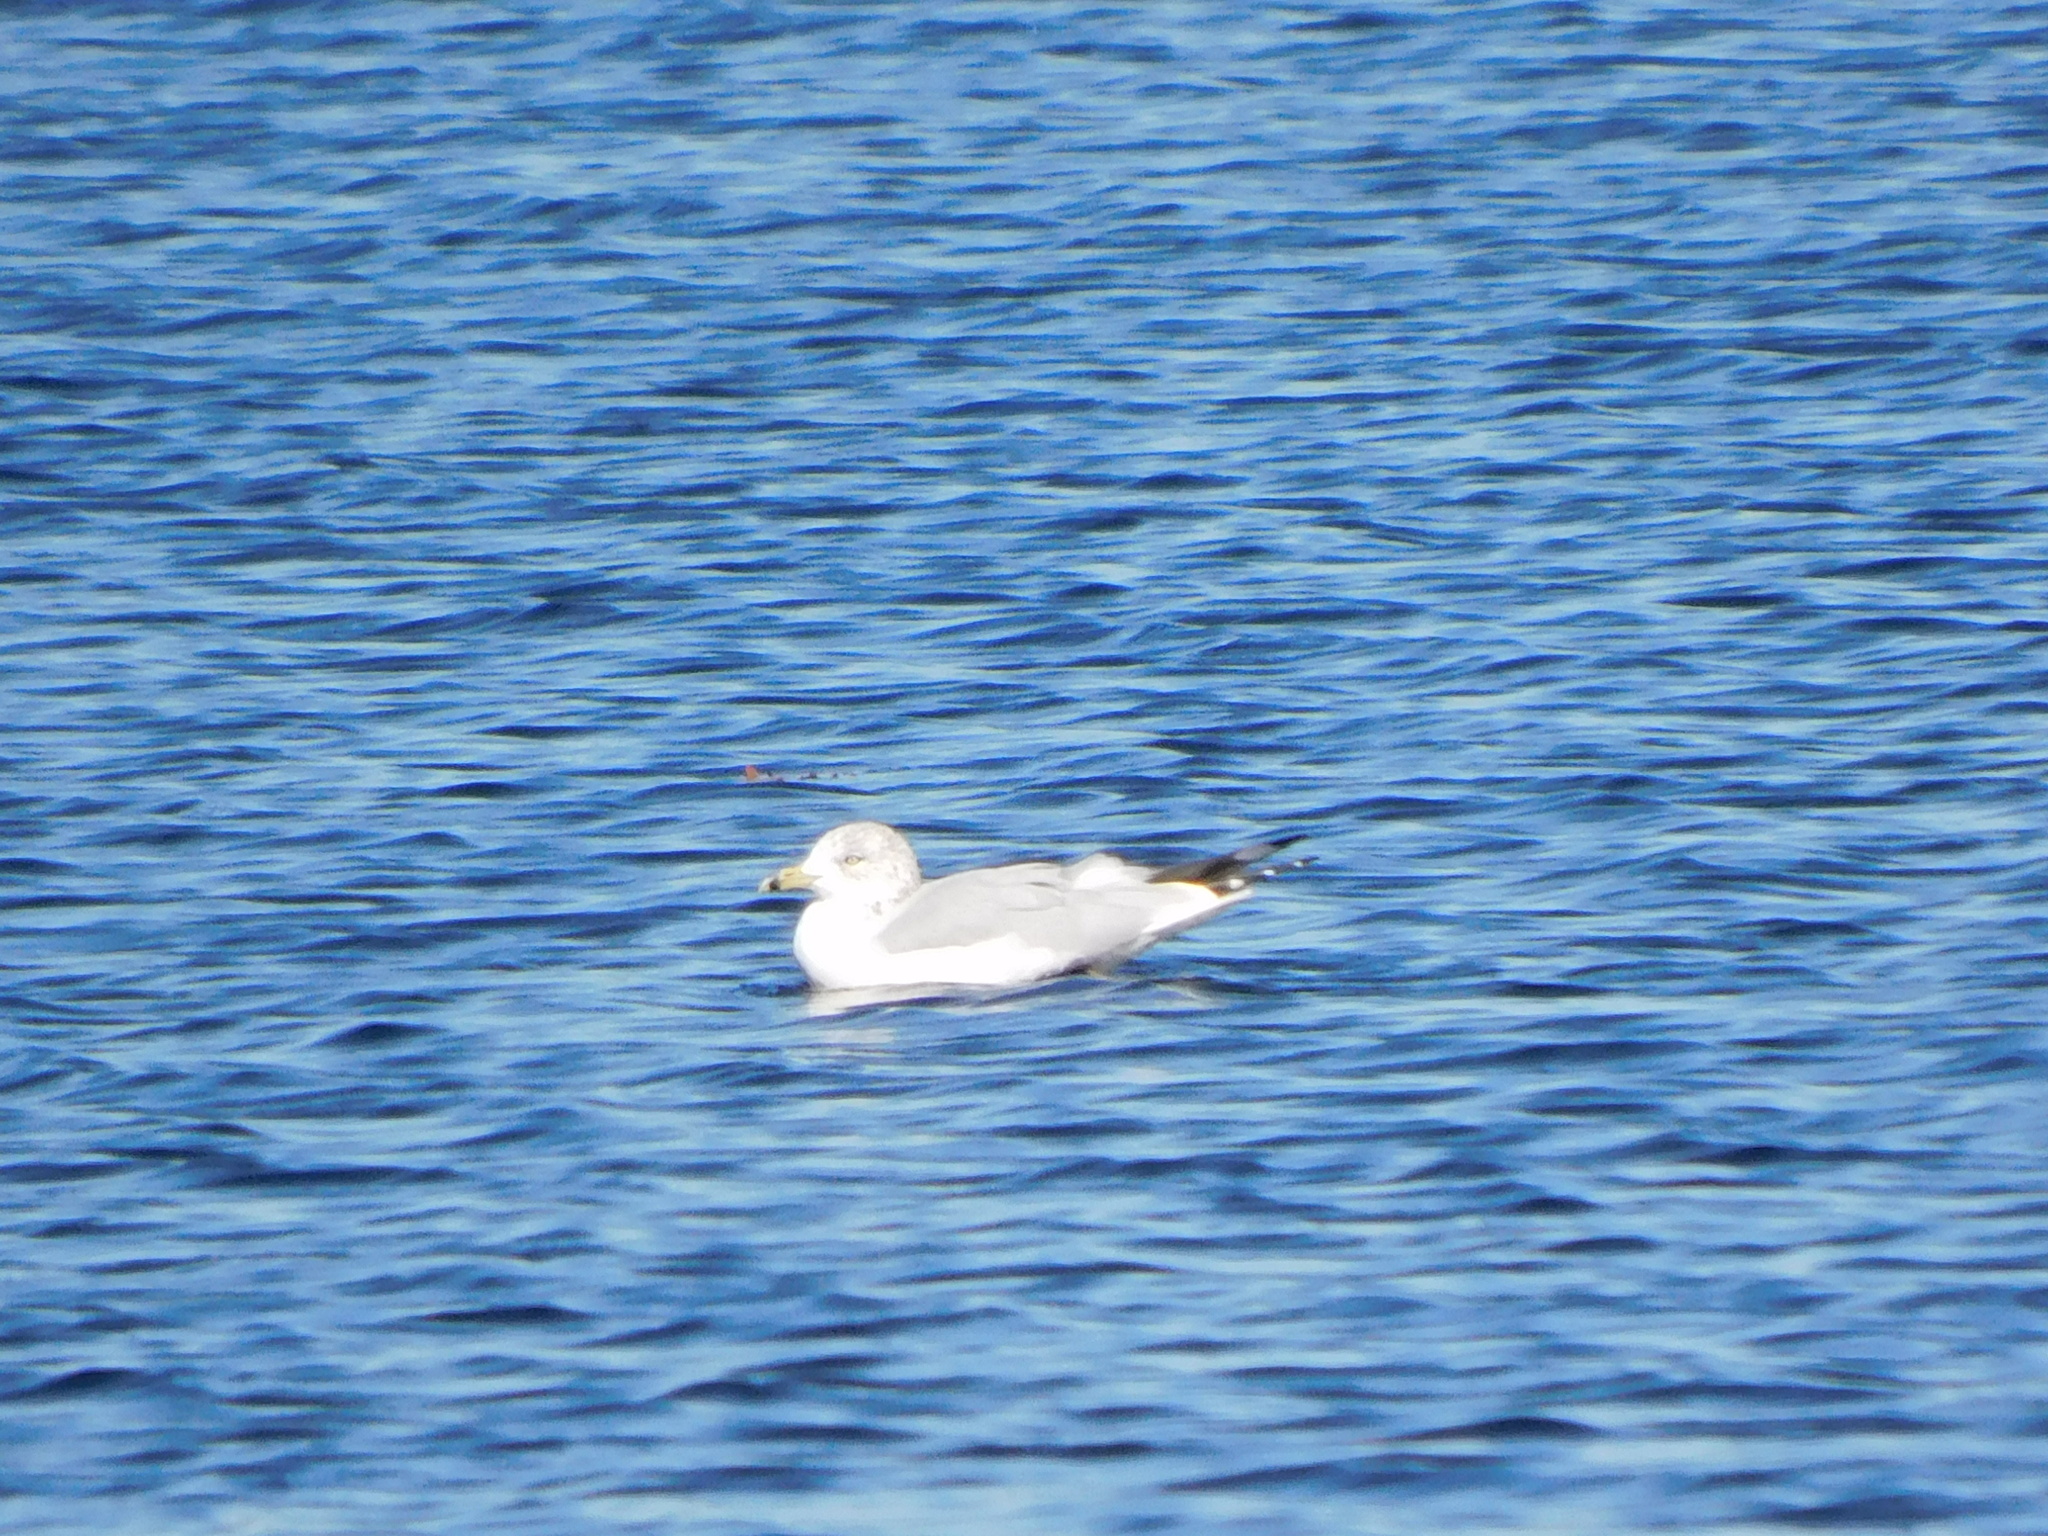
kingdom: Animalia
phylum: Chordata
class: Aves
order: Charadriiformes
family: Laridae
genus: Larus
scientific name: Larus delawarensis
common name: Ring-billed gull
